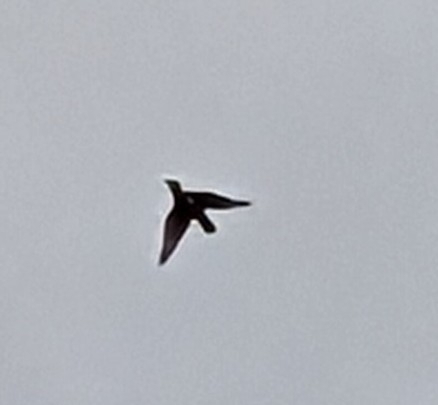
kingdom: Animalia
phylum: Chordata
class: Aves
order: Coraciiformes
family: Alcedinidae
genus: Megaceryle
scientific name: Megaceryle alcyon
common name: Belted kingfisher
